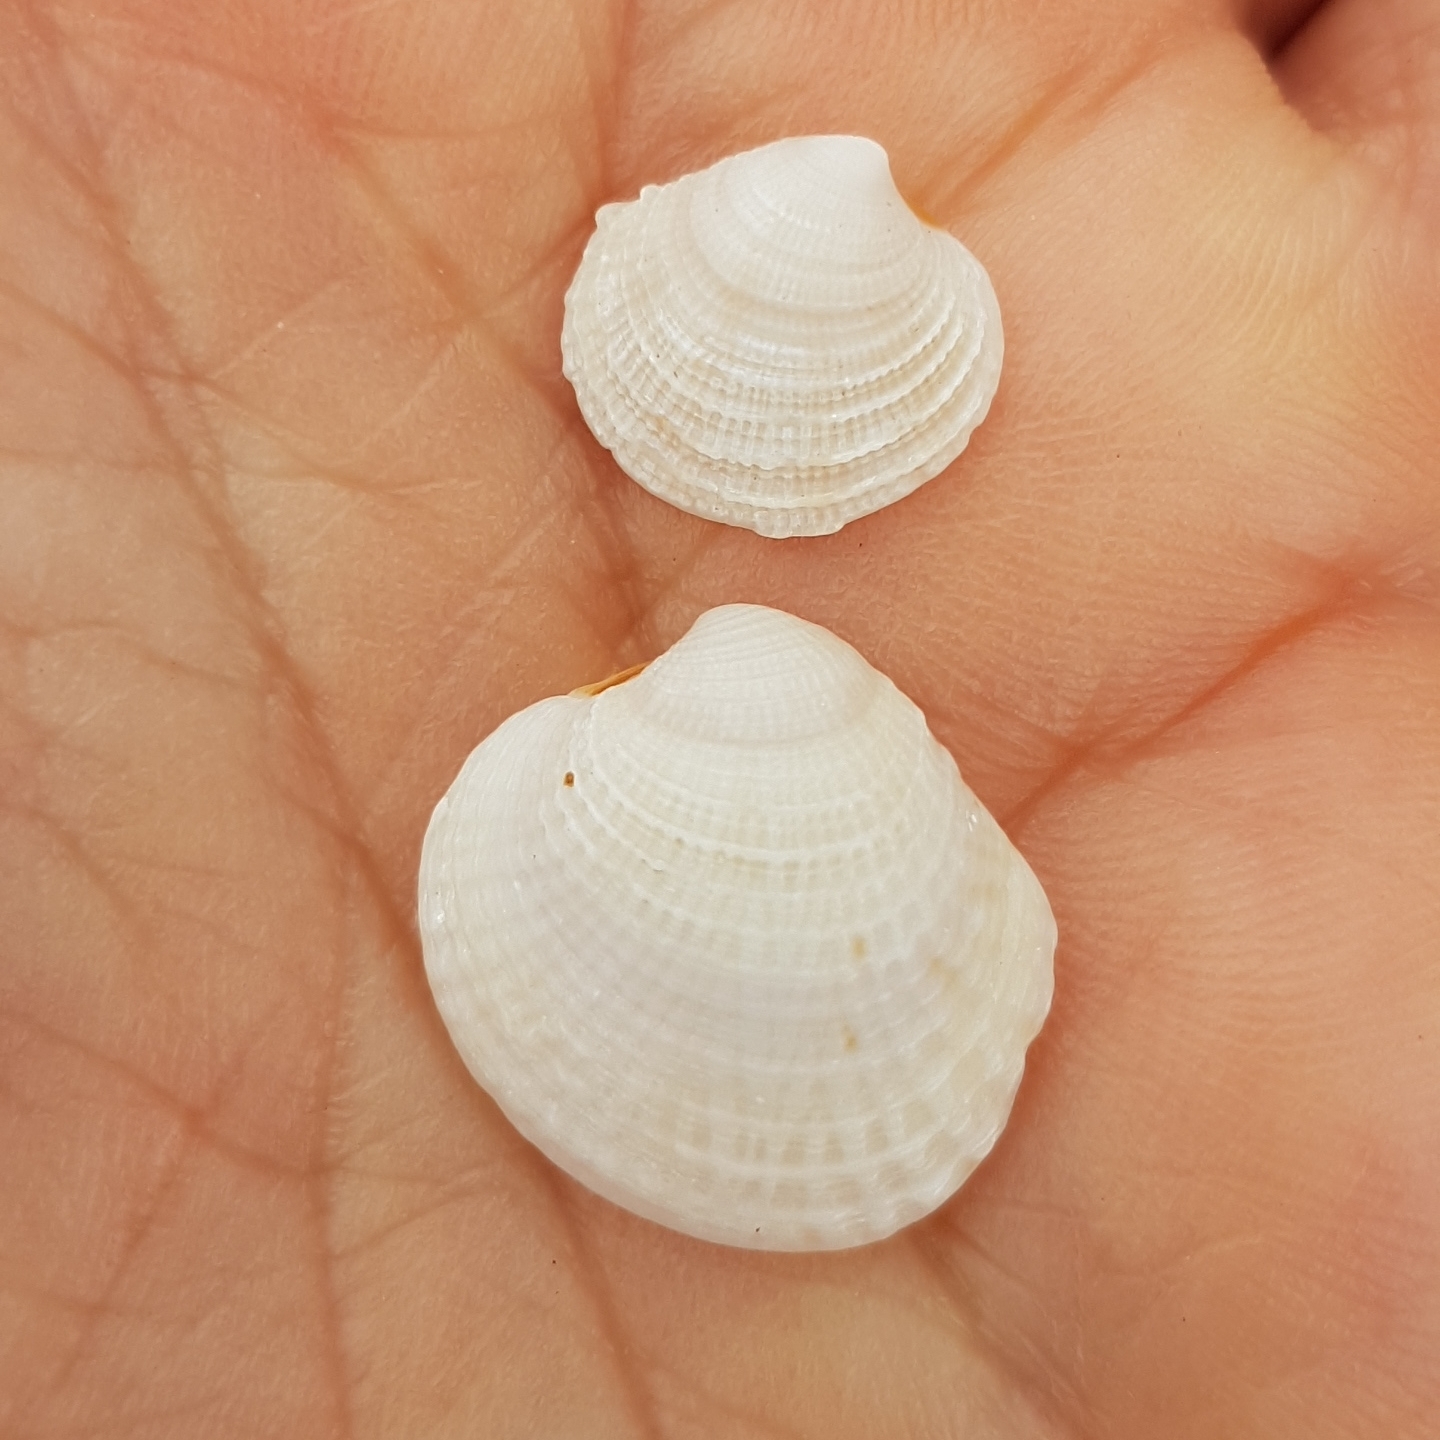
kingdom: Animalia
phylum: Mollusca
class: Bivalvia
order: Venerida
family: Veneridae
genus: Venus
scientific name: Venus verrucosa
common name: Warty venus
